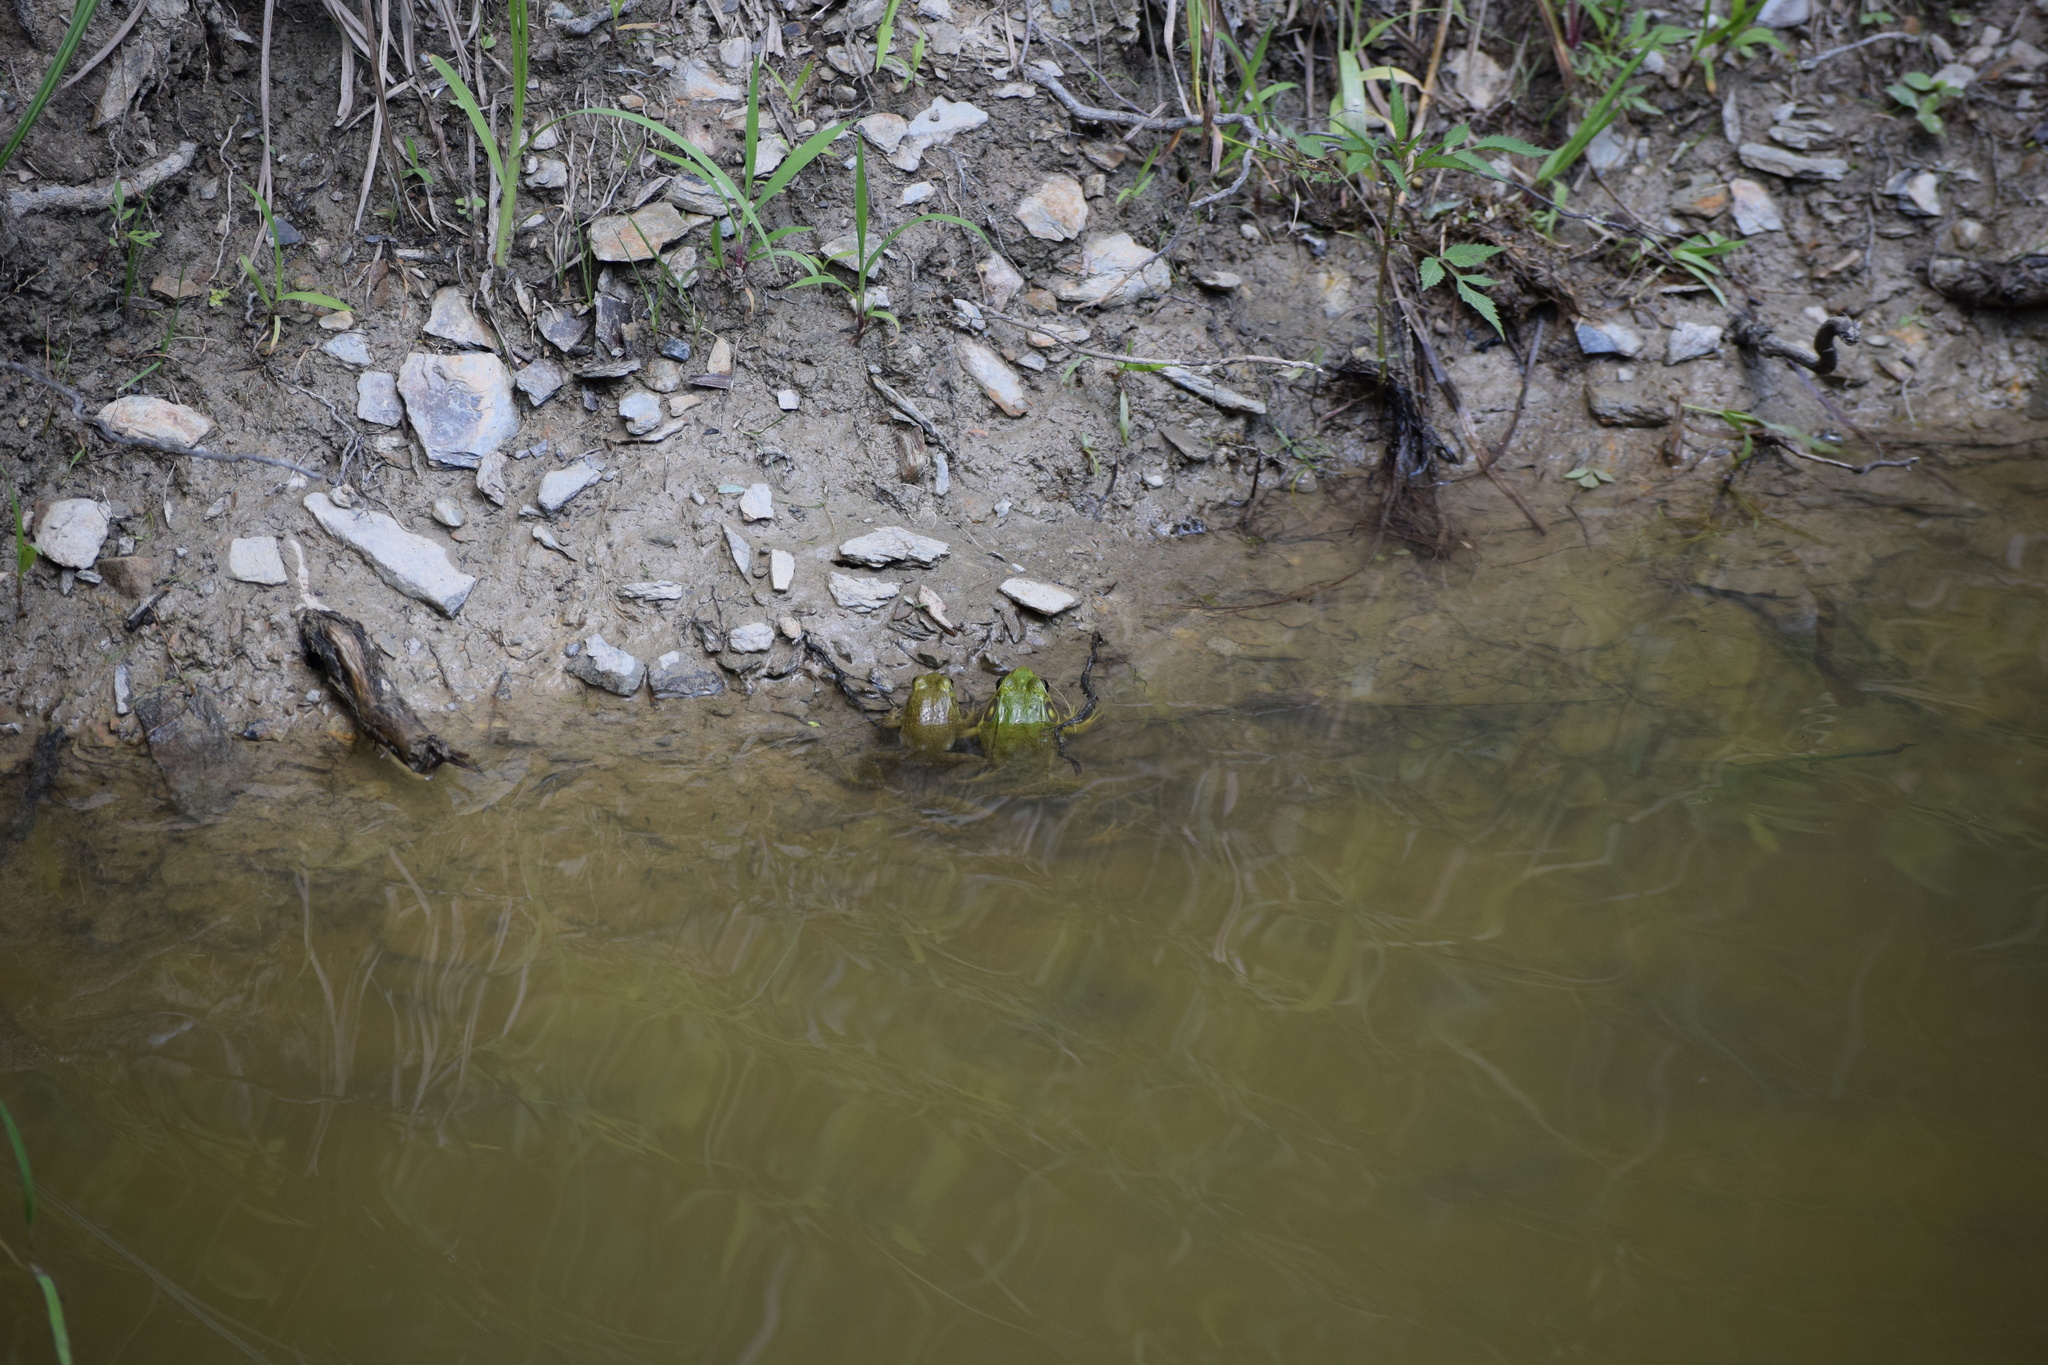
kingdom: Animalia
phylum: Chordata
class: Amphibia
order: Anura
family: Ranidae
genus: Lithobates
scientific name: Lithobates clamitans
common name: Green frog
